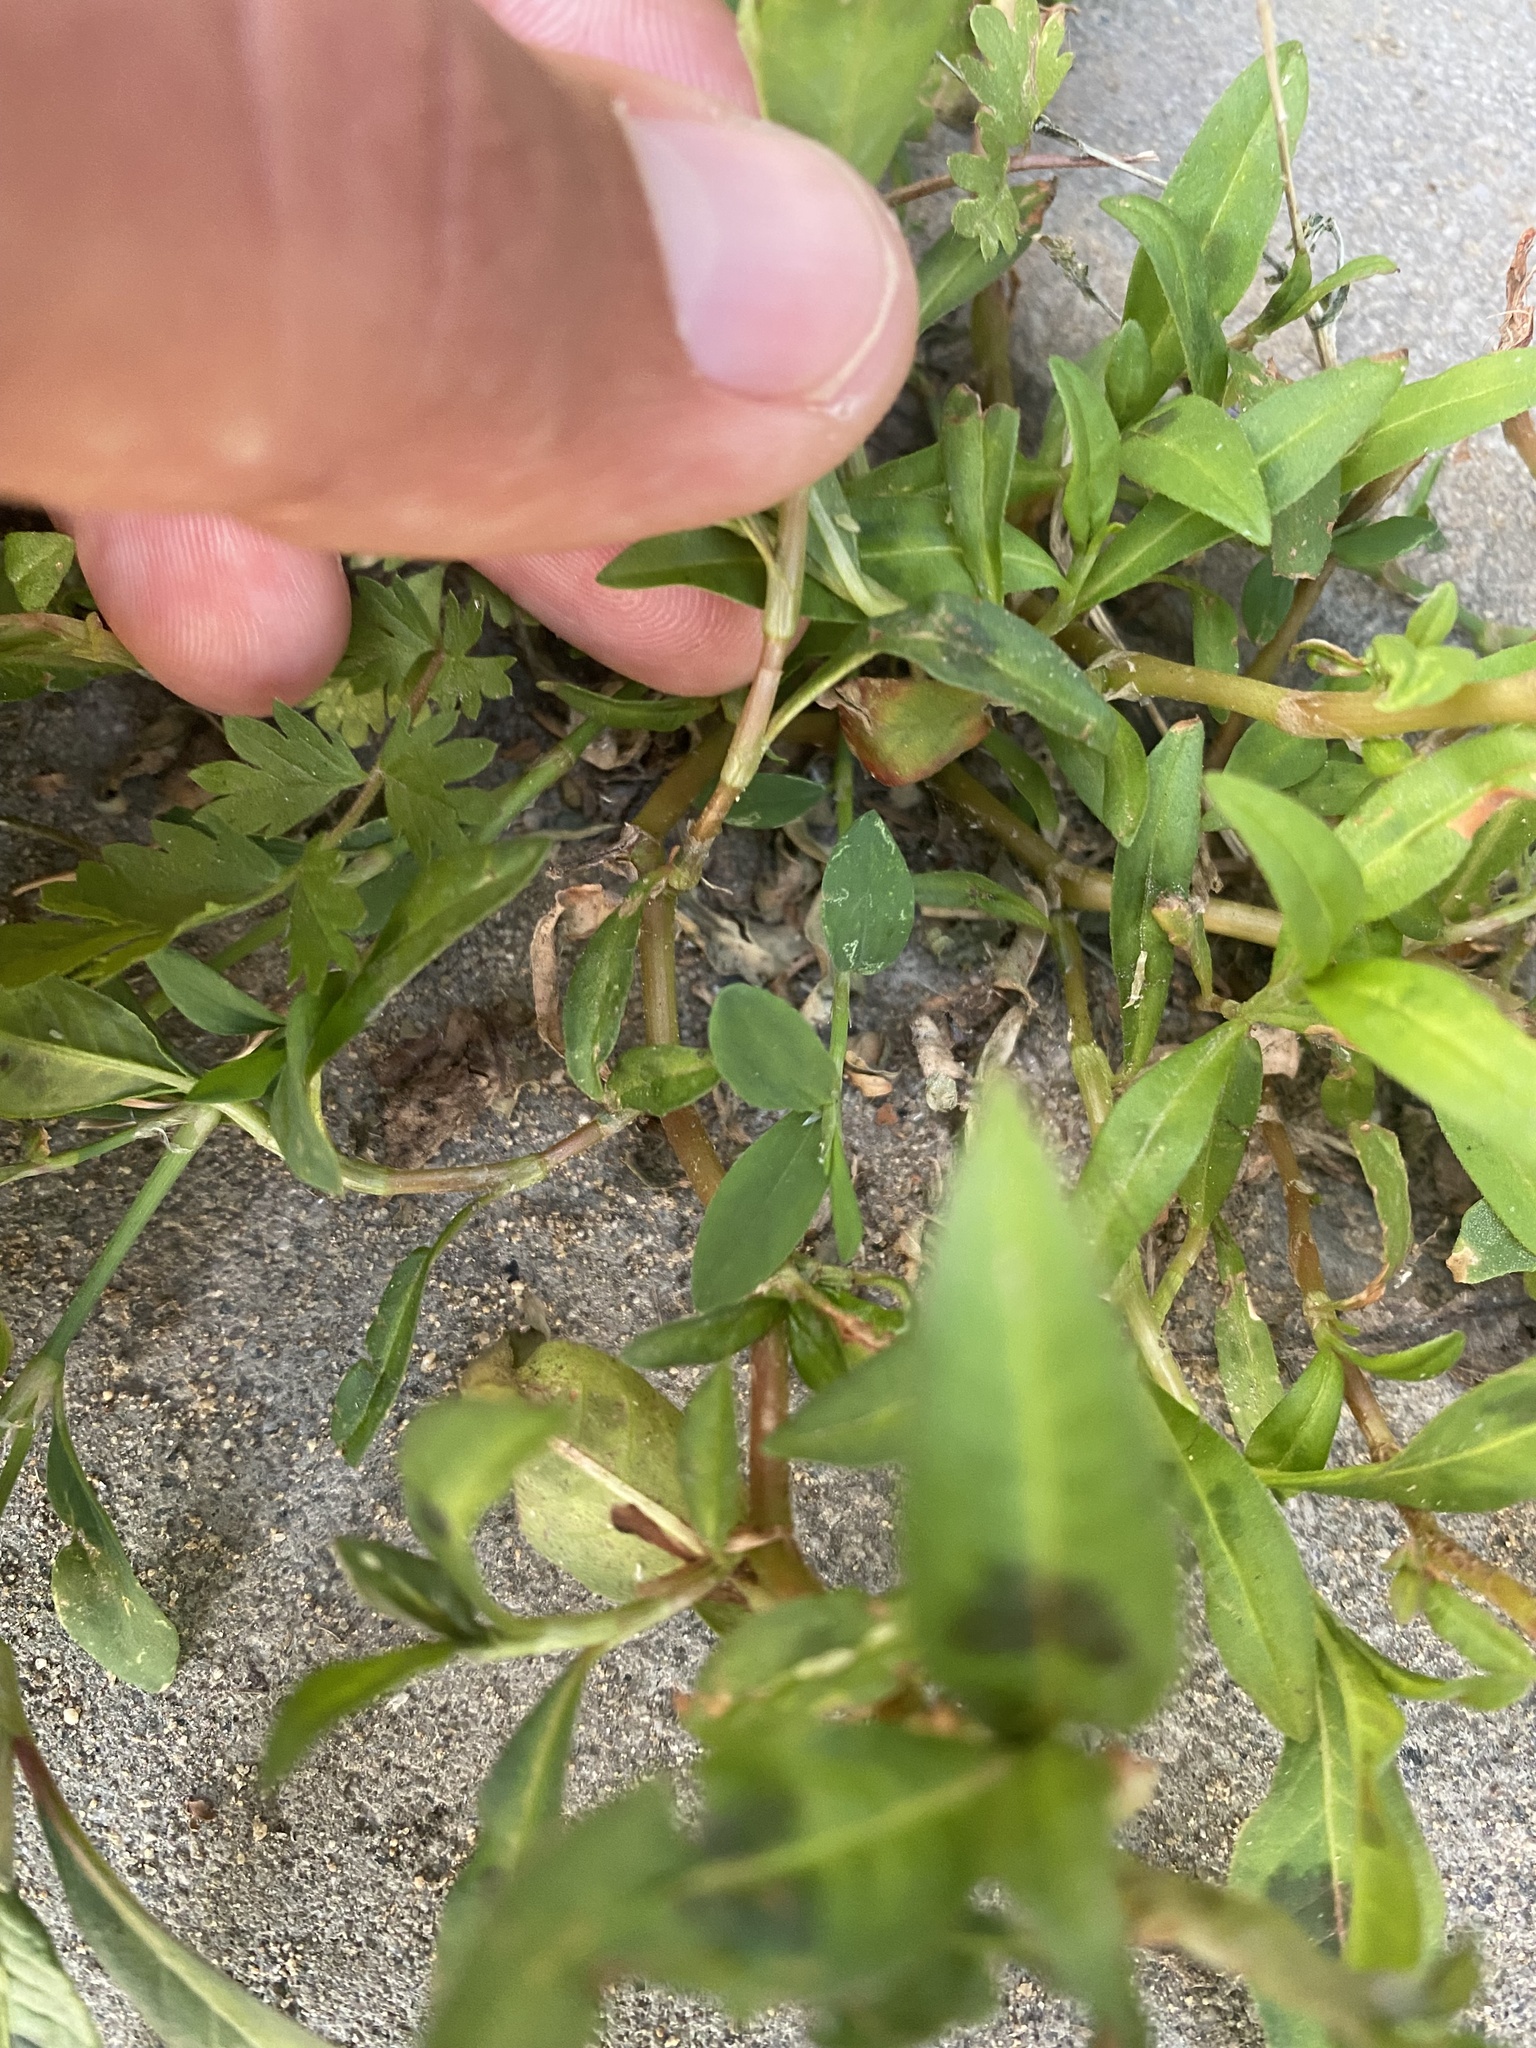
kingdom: Plantae
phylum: Tracheophyta
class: Magnoliopsida
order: Caryophyllales
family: Polygonaceae
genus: Persicaria
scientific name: Persicaria lapathifolia
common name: Curlytop knotweed
